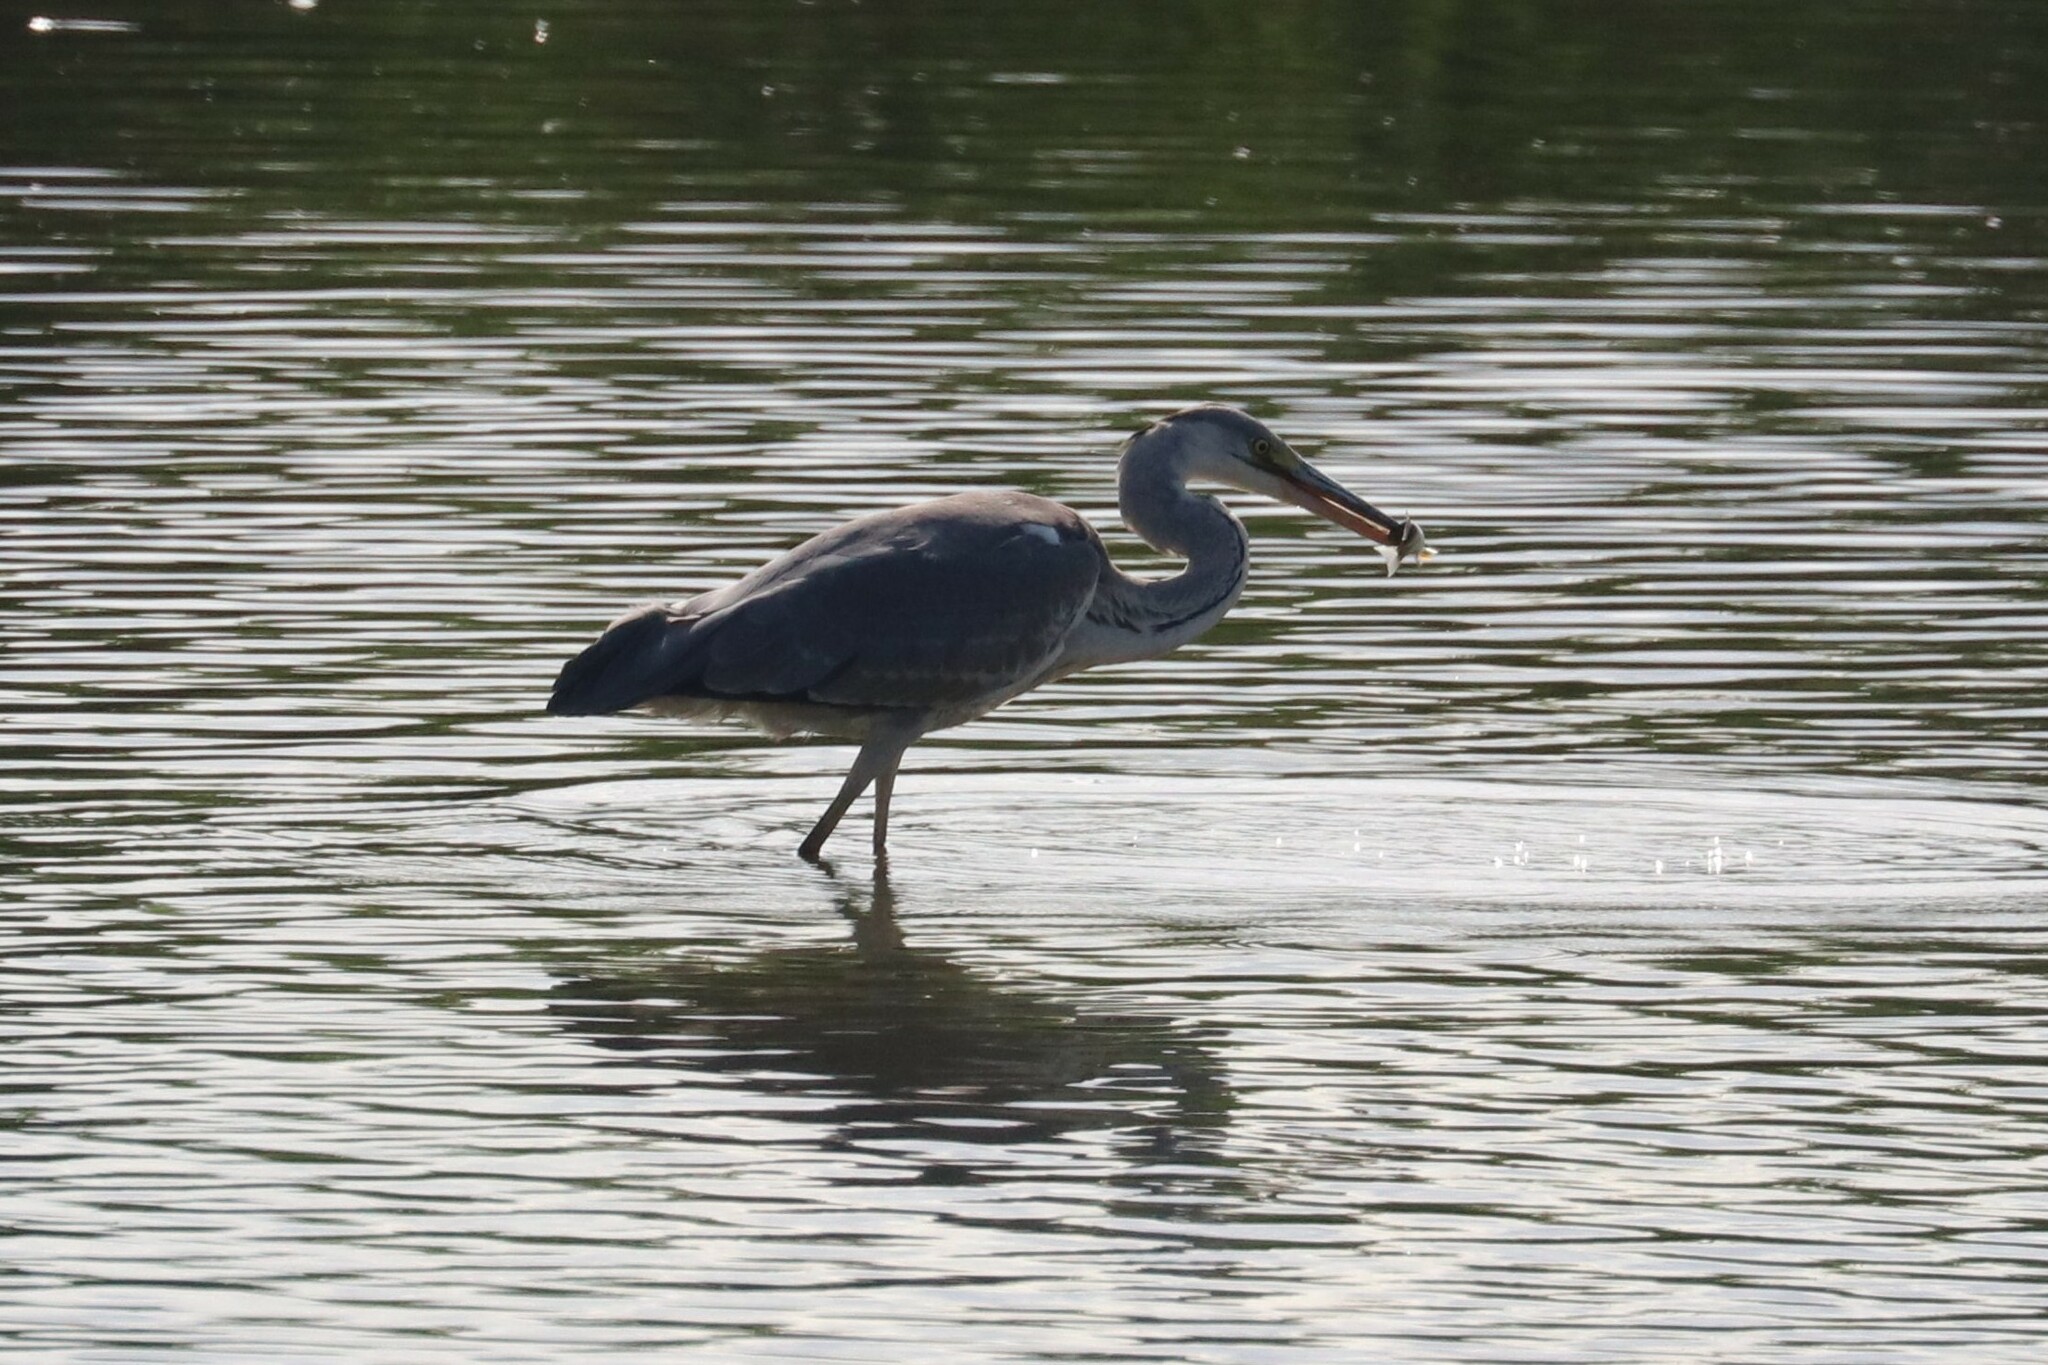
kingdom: Animalia
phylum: Chordata
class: Aves
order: Pelecaniformes
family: Ardeidae
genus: Ardea
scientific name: Ardea cinerea
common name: Grey heron
